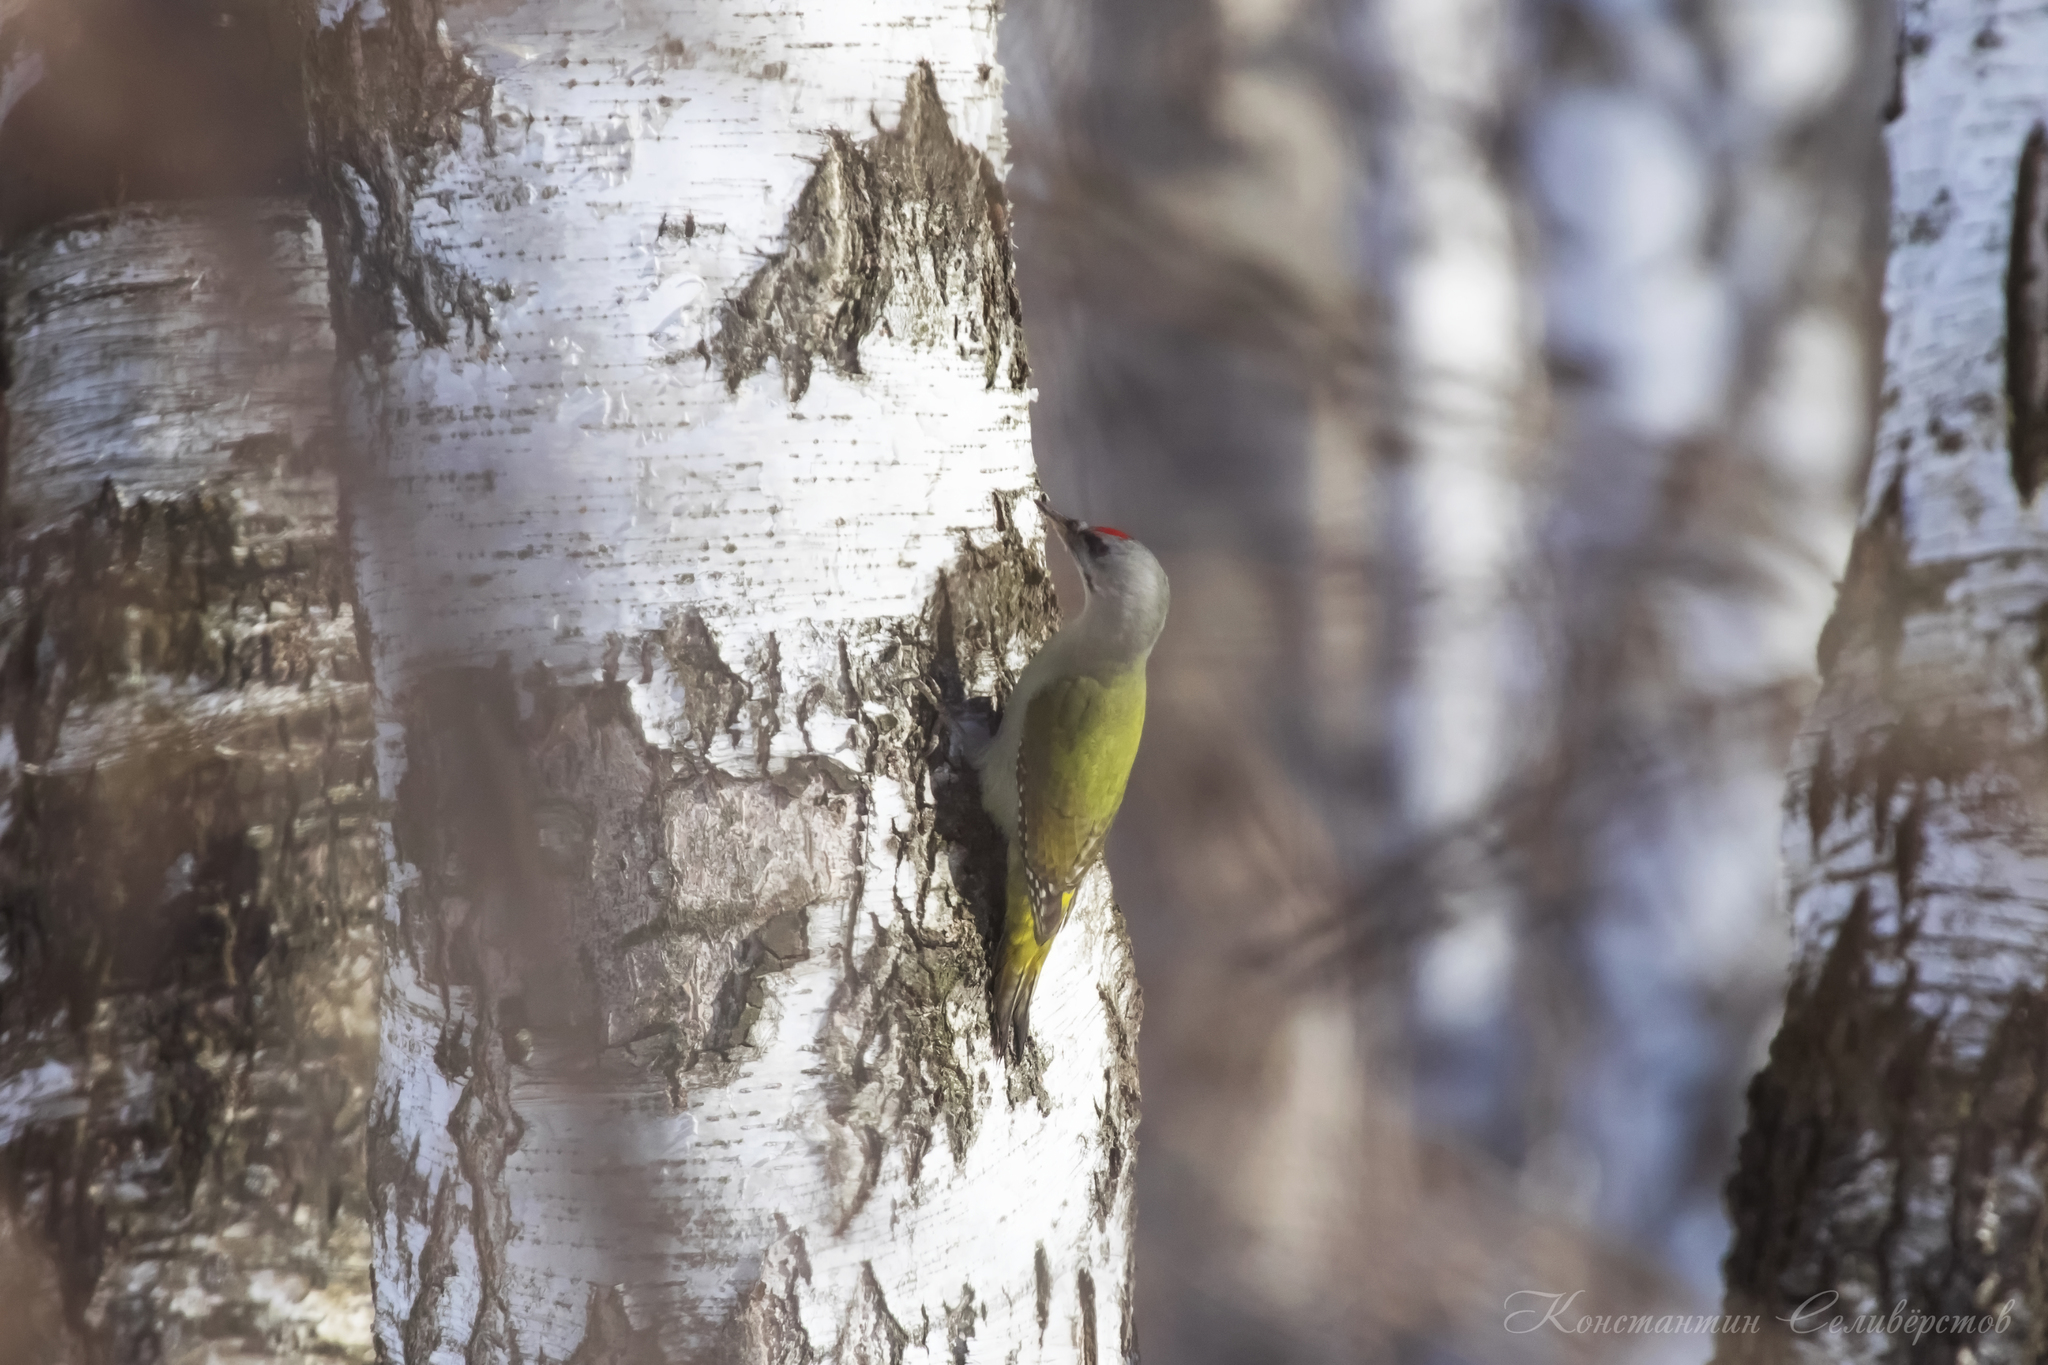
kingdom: Animalia
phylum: Chordata
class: Aves
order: Piciformes
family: Picidae
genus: Picus
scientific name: Picus canus
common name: Grey-headed woodpecker
